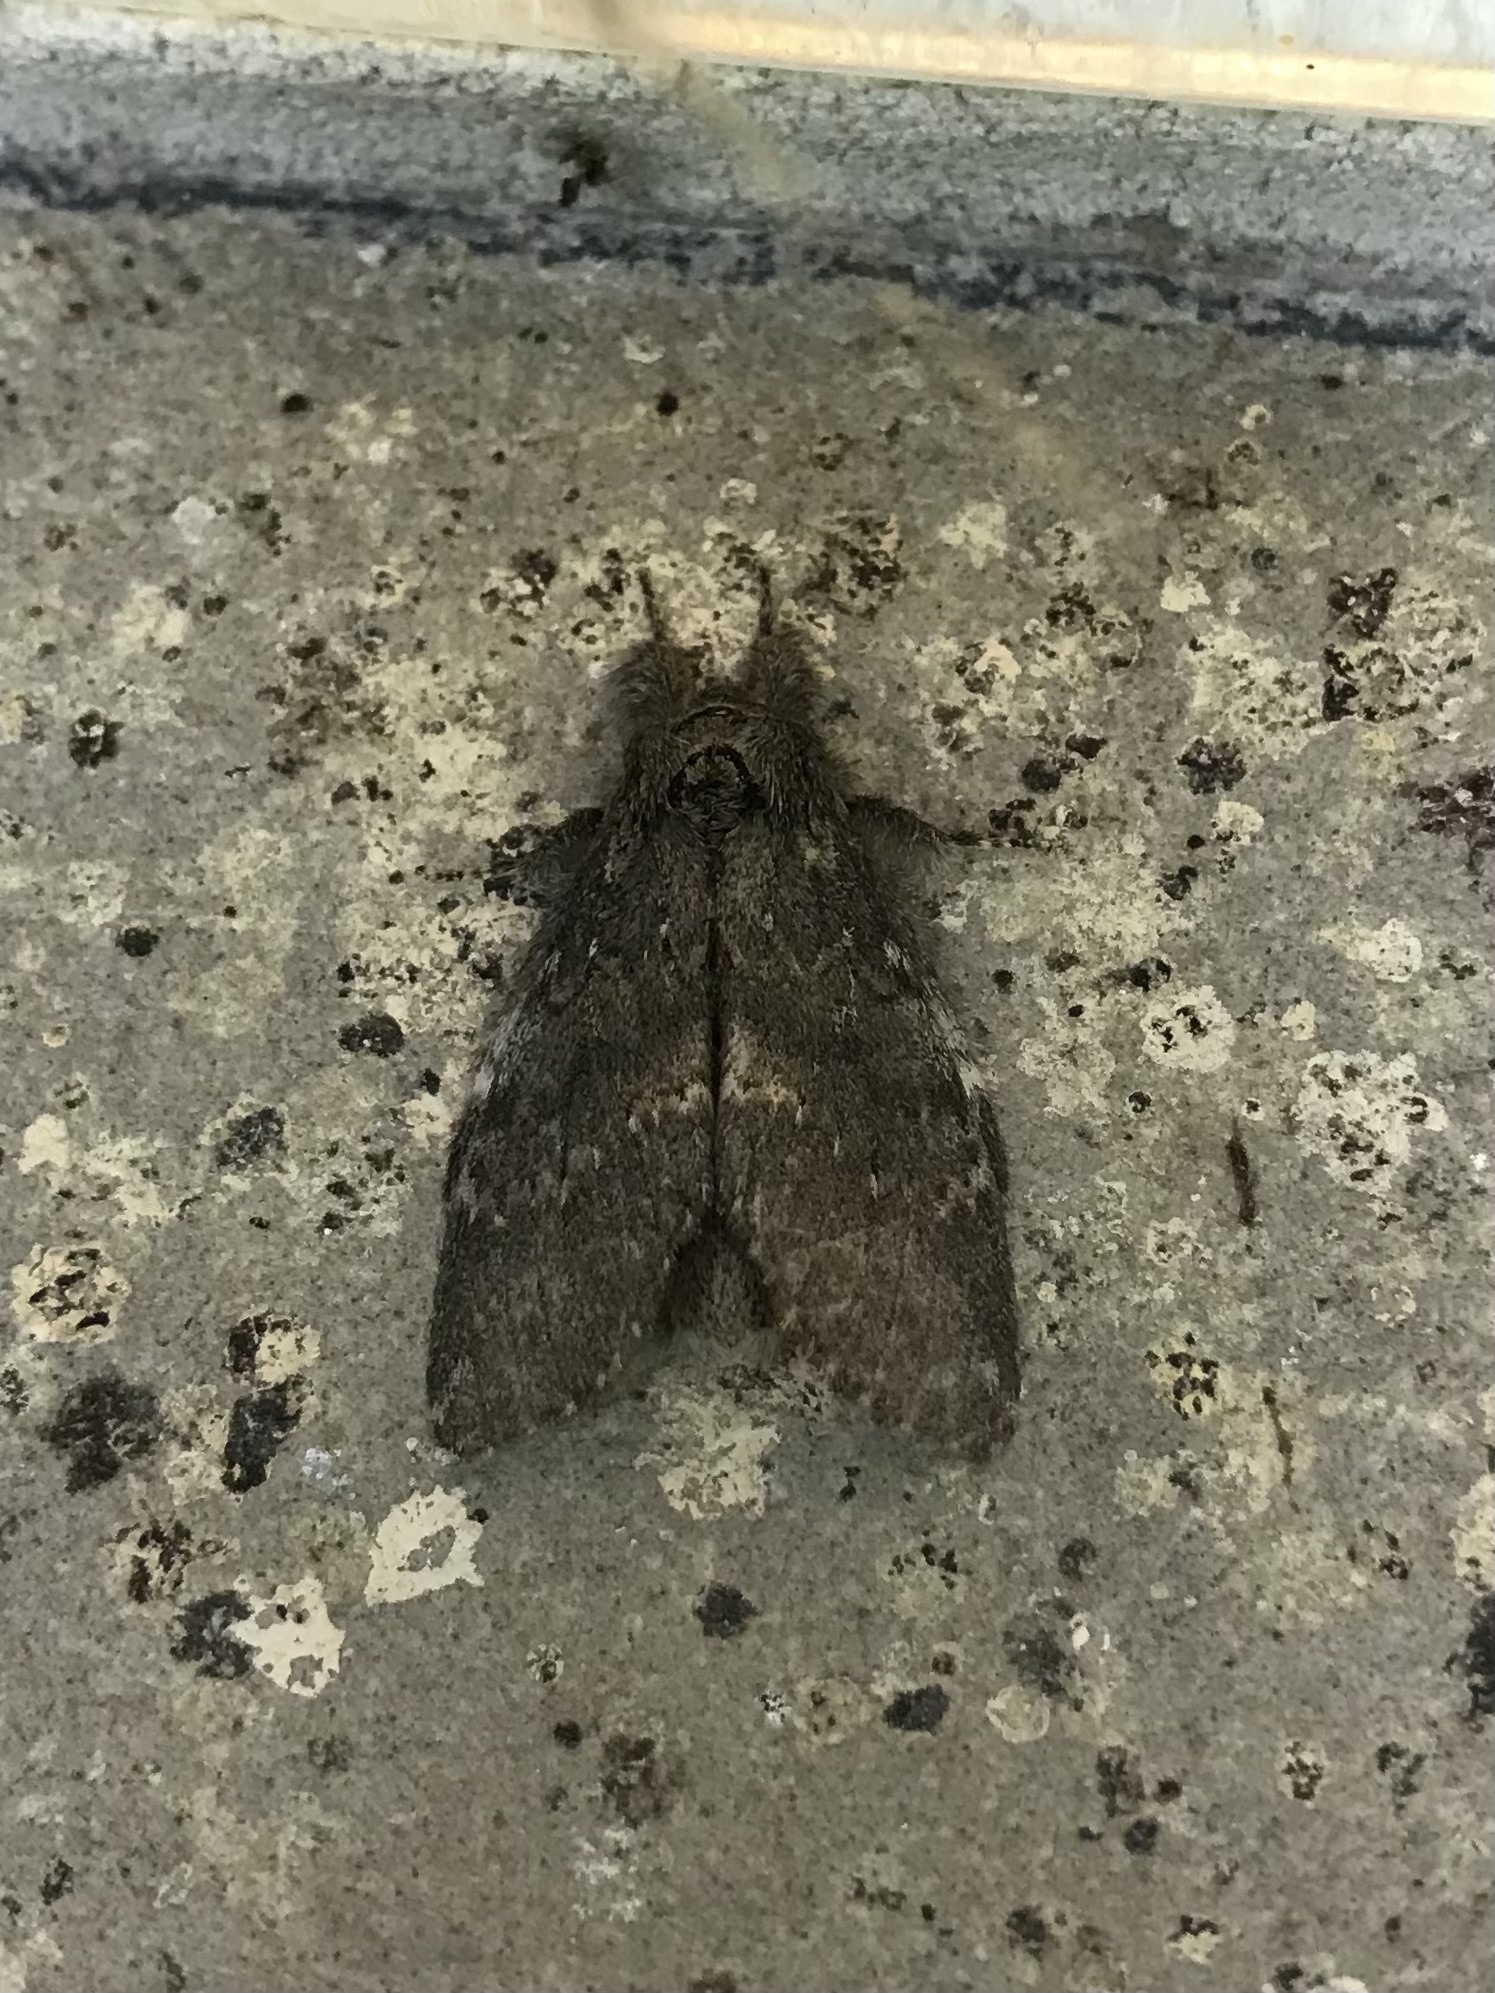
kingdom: Animalia
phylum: Arthropoda
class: Insecta
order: Lepidoptera
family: Notodontidae
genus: Peridea
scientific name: Peridea angulosa
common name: Angulose prominent
